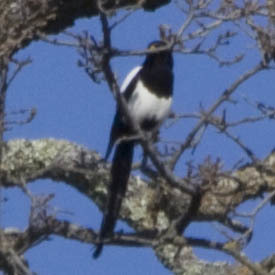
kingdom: Animalia
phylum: Chordata
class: Aves
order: Passeriformes
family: Corvidae
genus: Pica
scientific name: Pica nuttalli
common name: Yellow-billed magpie
